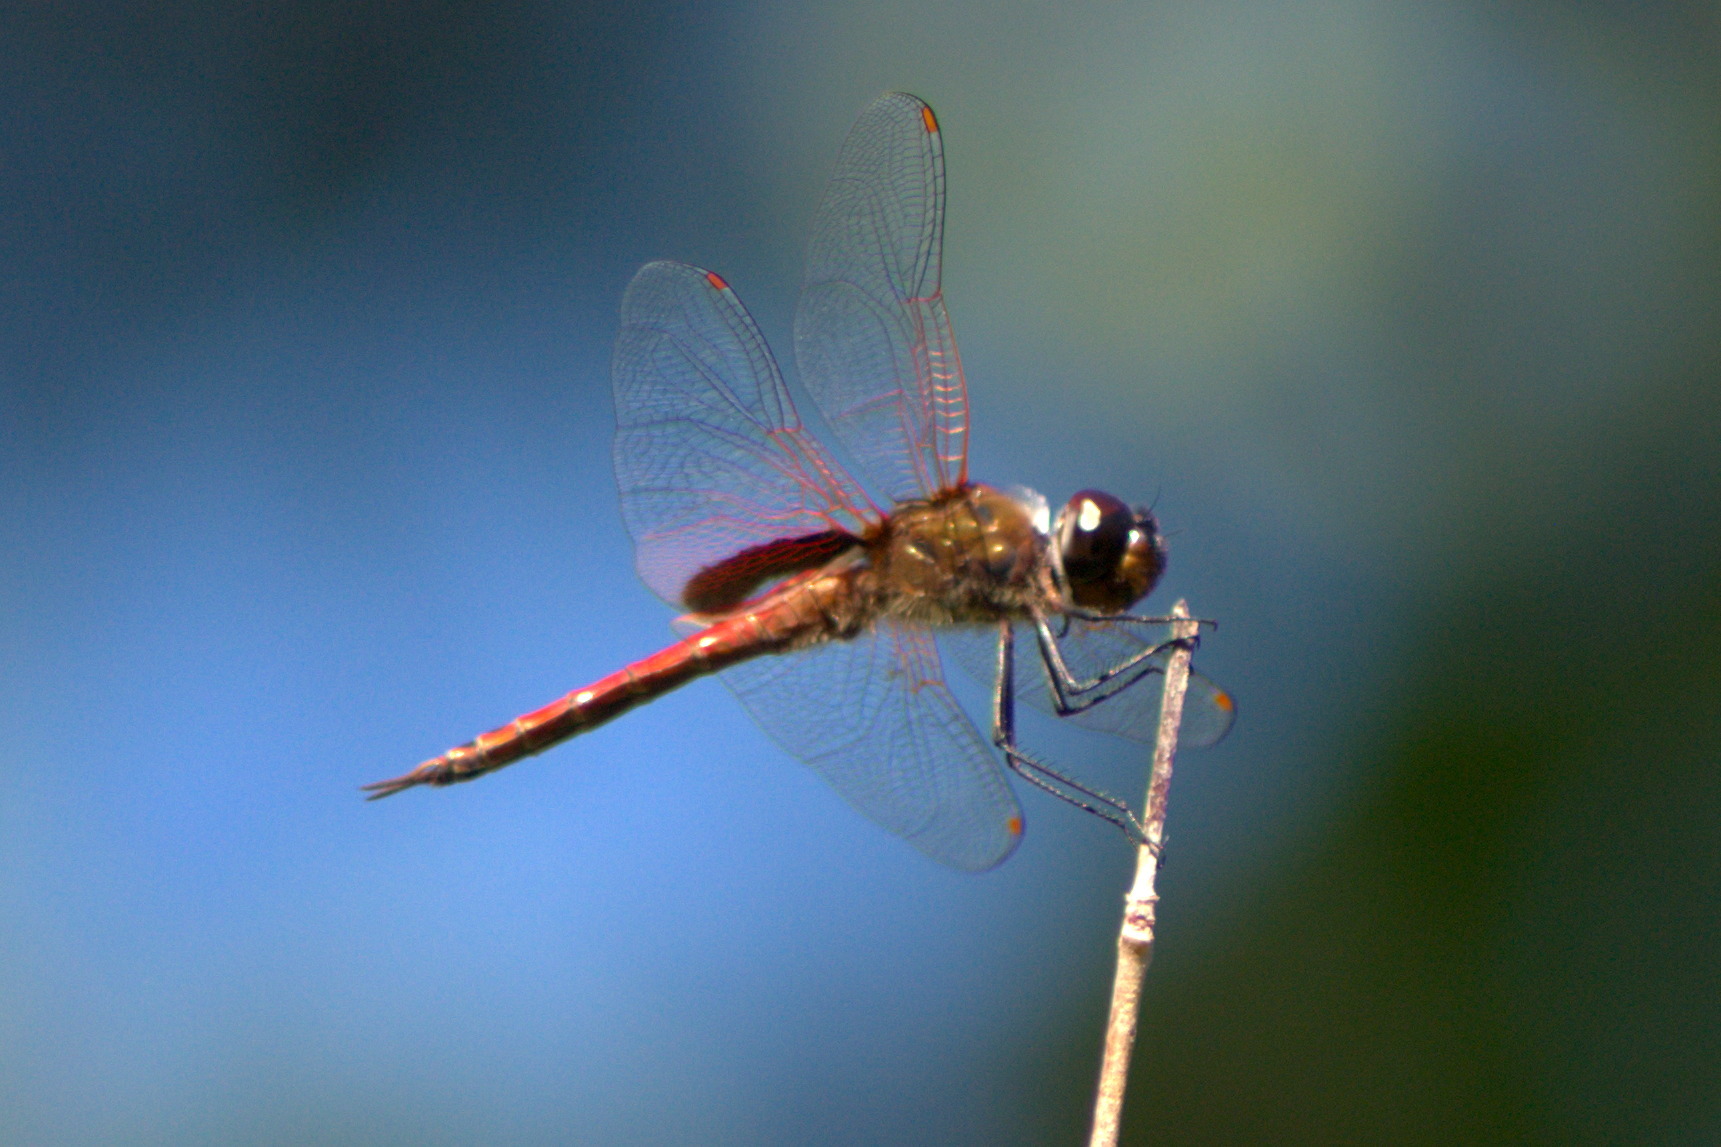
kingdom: Animalia
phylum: Arthropoda
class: Insecta
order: Odonata
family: Libellulidae
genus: Tramea
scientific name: Tramea insularis
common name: Antillean saddlebags
